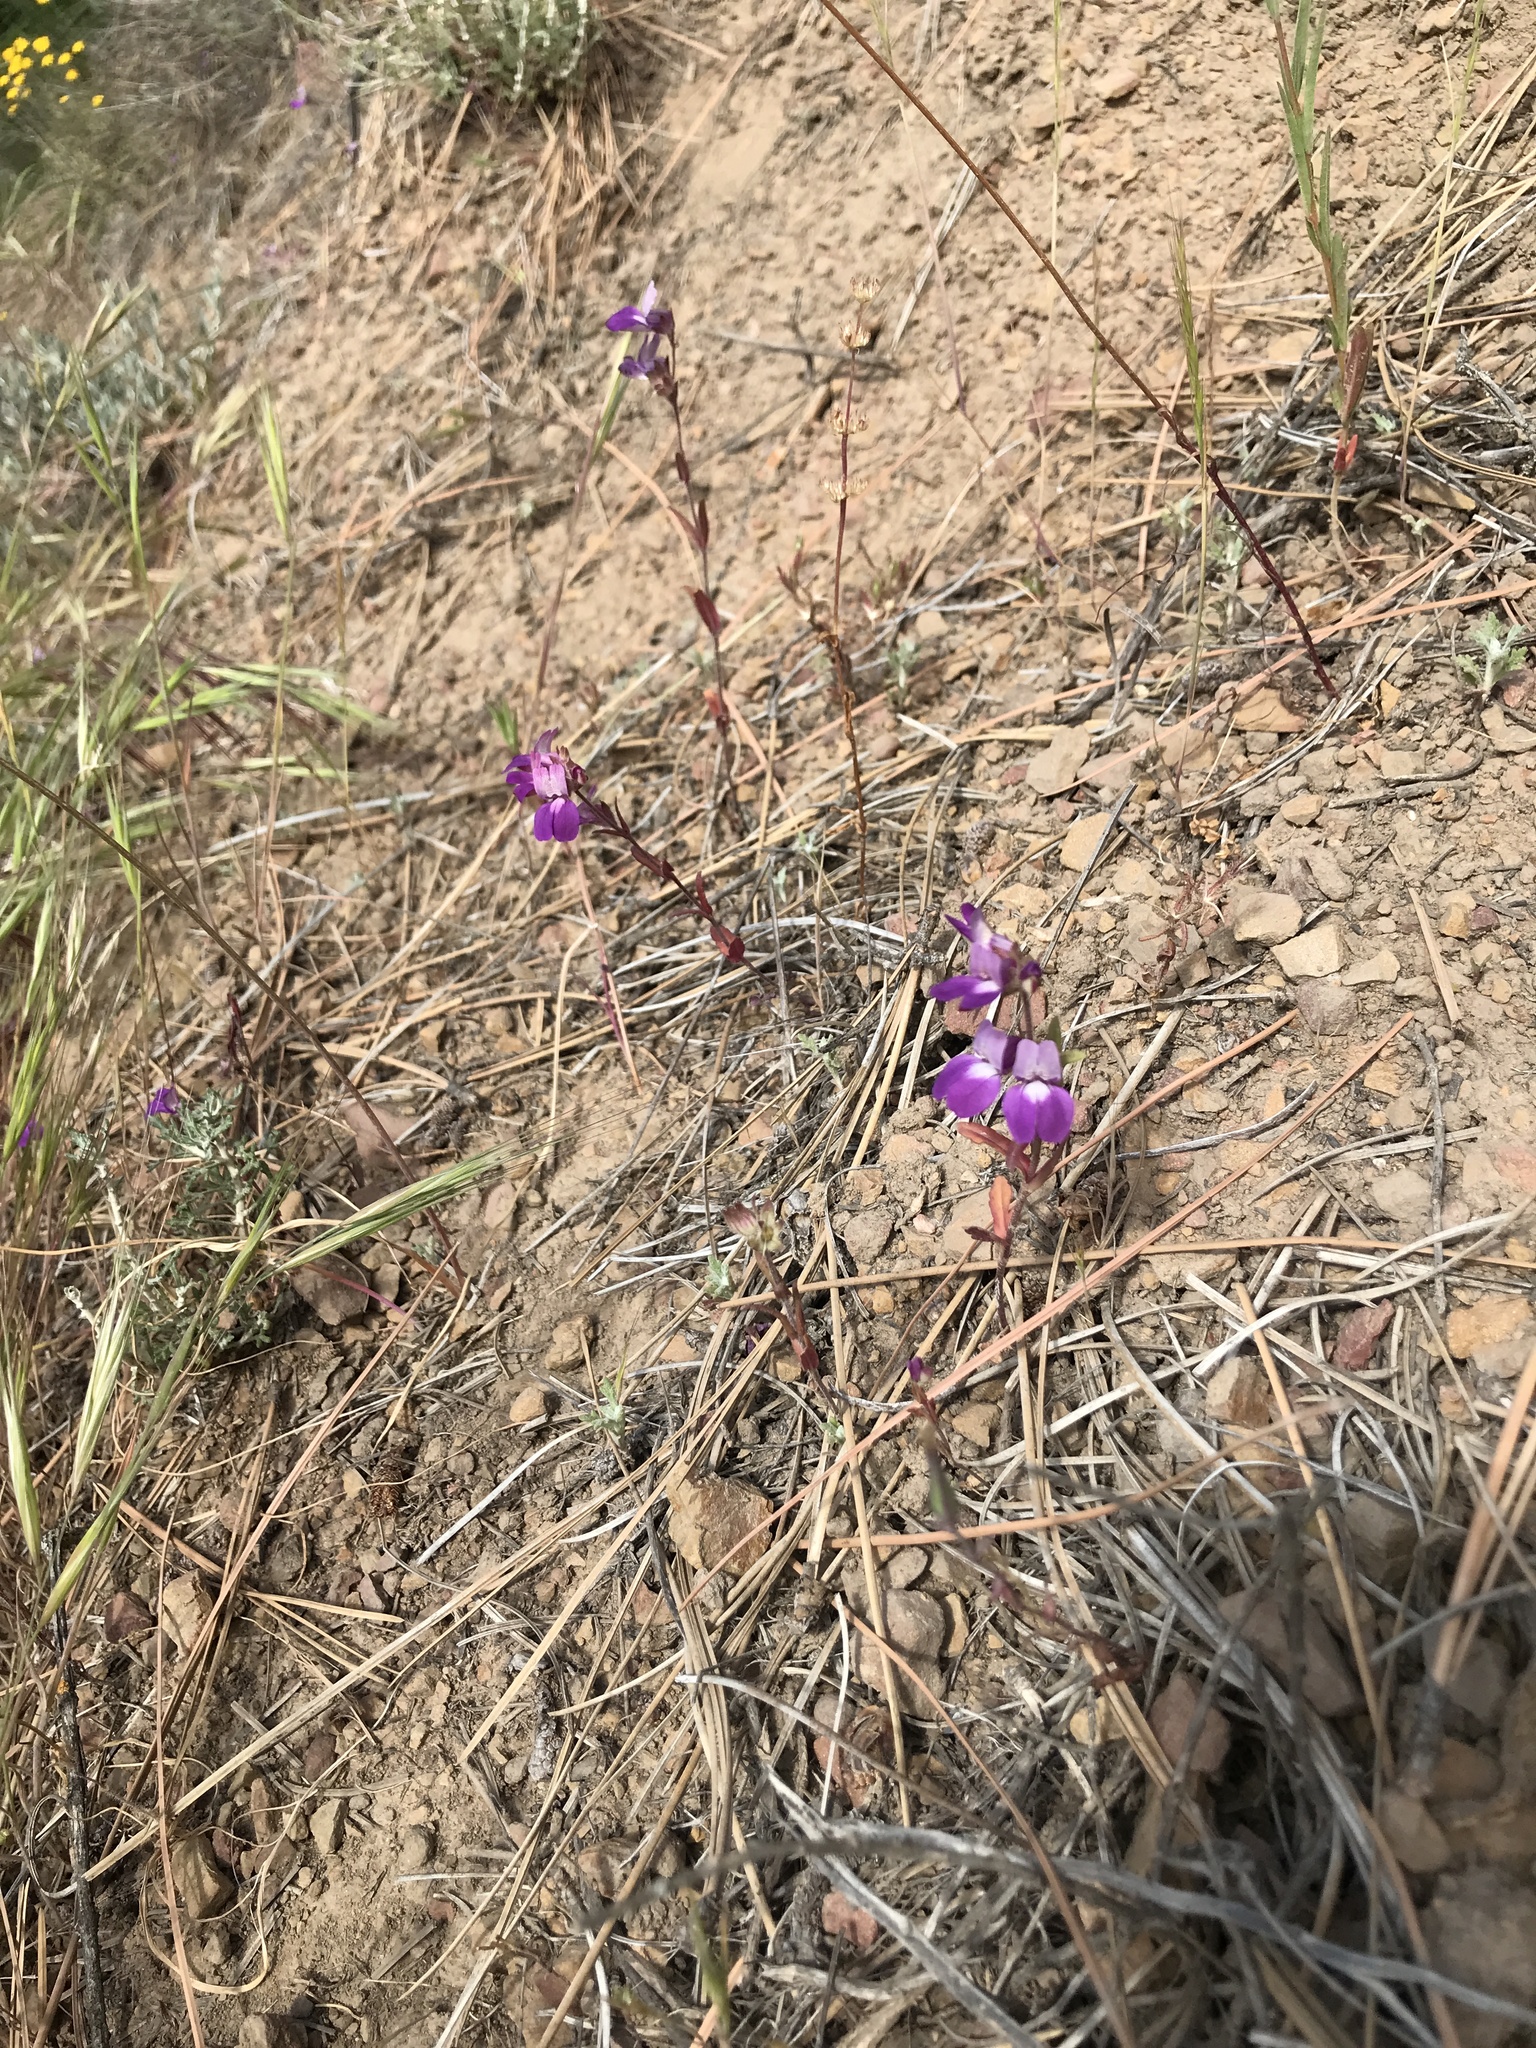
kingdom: Plantae
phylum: Tracheophyta
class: Magnoliopsida
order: Lamiales
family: Plantaginaceae
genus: Collinsia
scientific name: Collinsia heterophylla
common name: Chinese-houses
